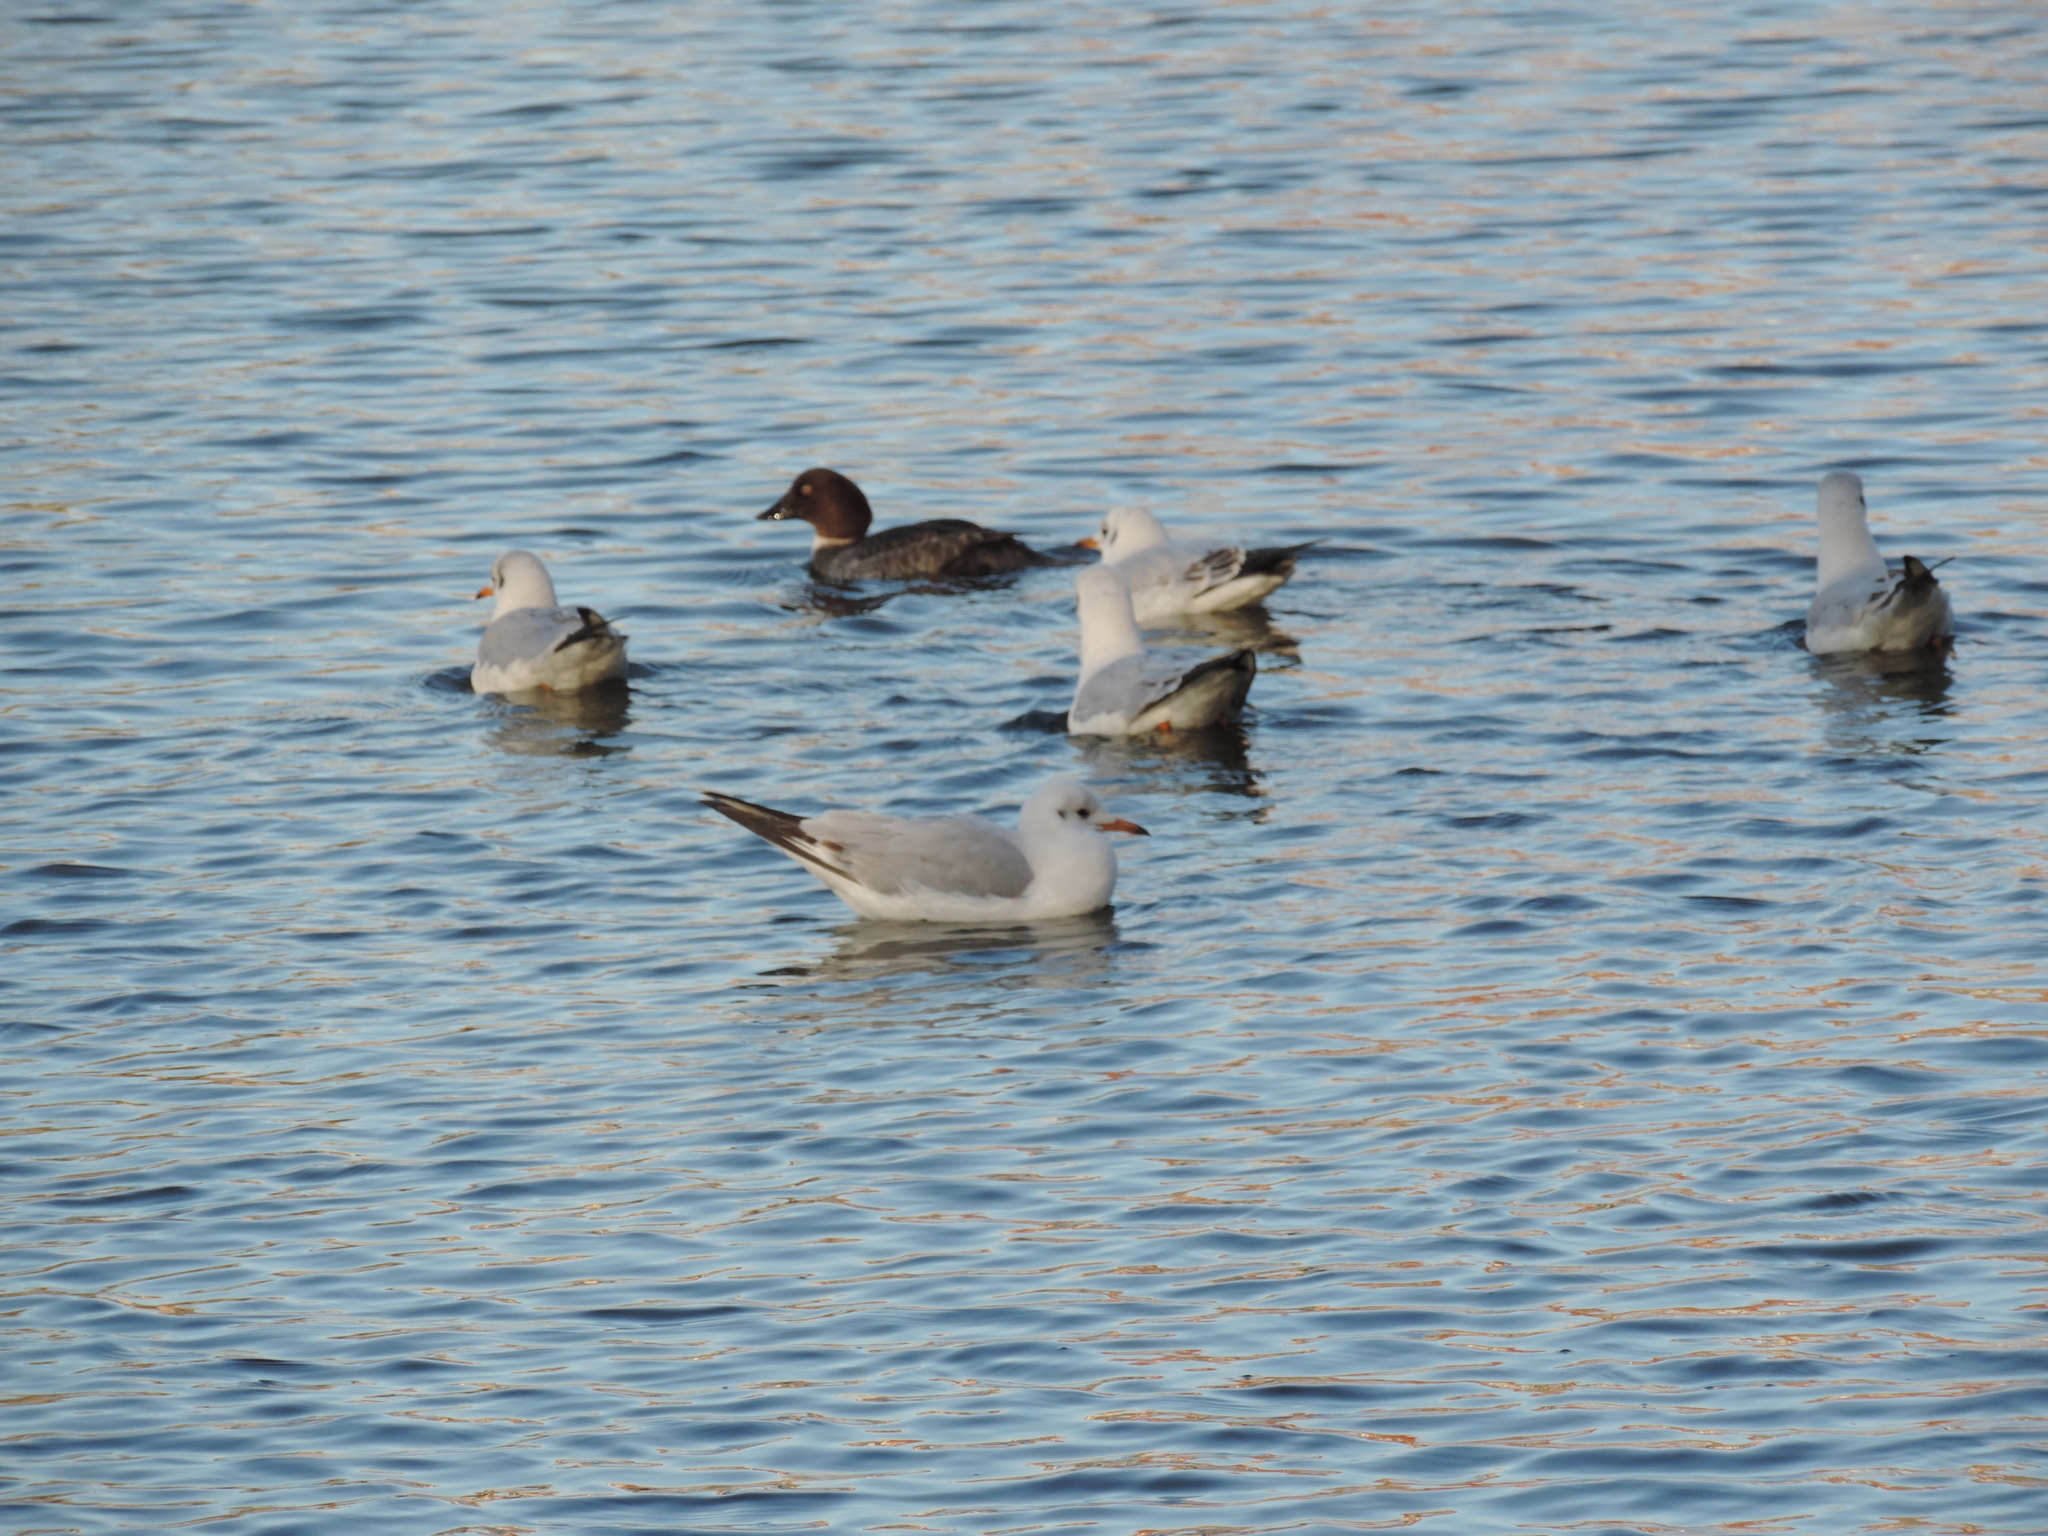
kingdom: Animalia
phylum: Chordata
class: Aves
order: Charadriiformes
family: Laridae
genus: Chroicocephalus
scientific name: Chroicocephalus ridibundus
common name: Black-headed gull
